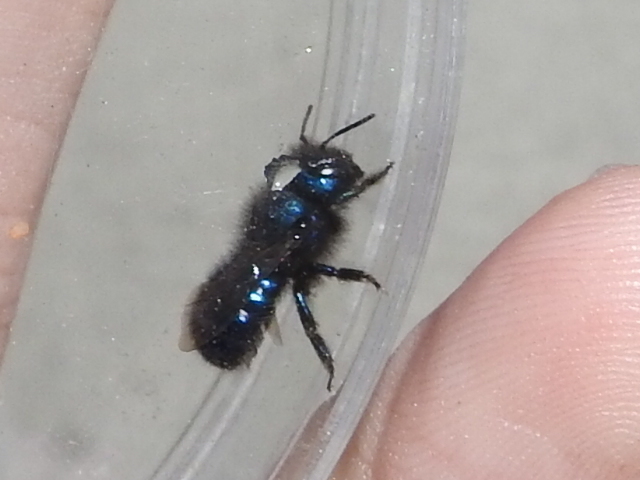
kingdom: Animalia
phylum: Arthropoda
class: Insecta
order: Hymenoptera
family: Megachilidae
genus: Osmia
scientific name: Osmia ribifloris
